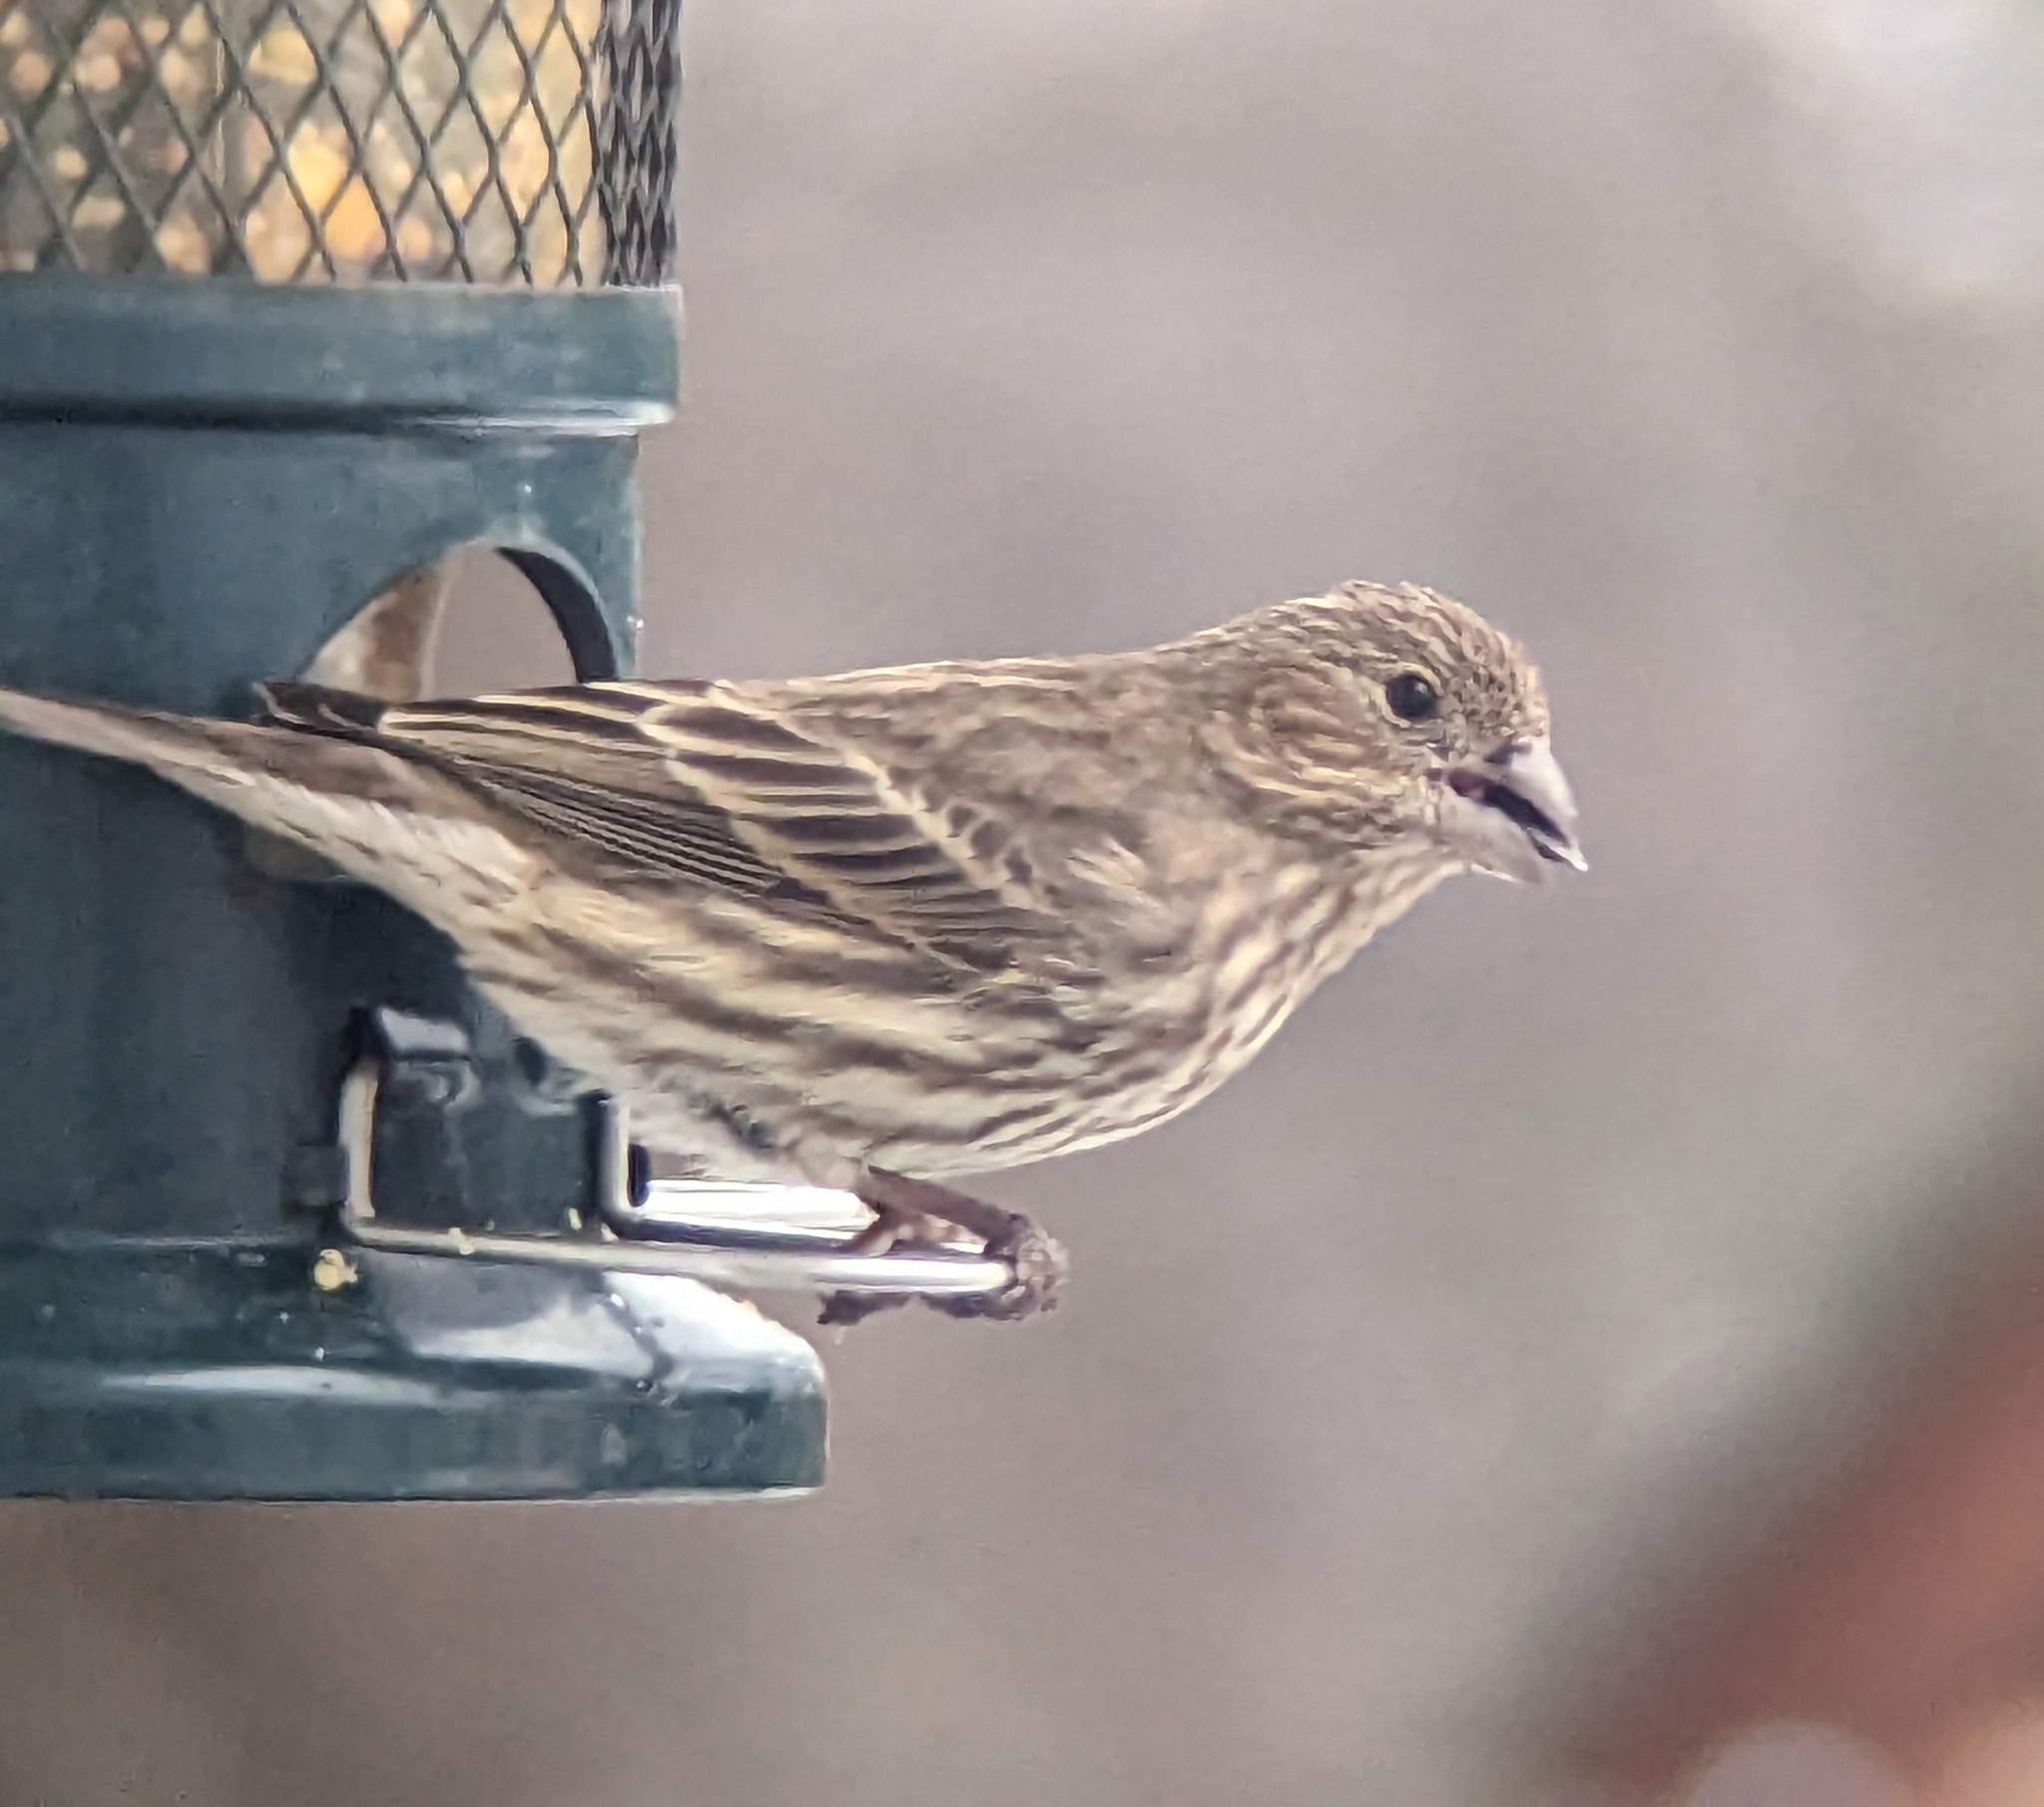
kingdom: Animalia
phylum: Chordata
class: Aves
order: Passeriformes
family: Fringillidae
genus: Haemorhous
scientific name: Haemorhous mexicanus
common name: House finch
